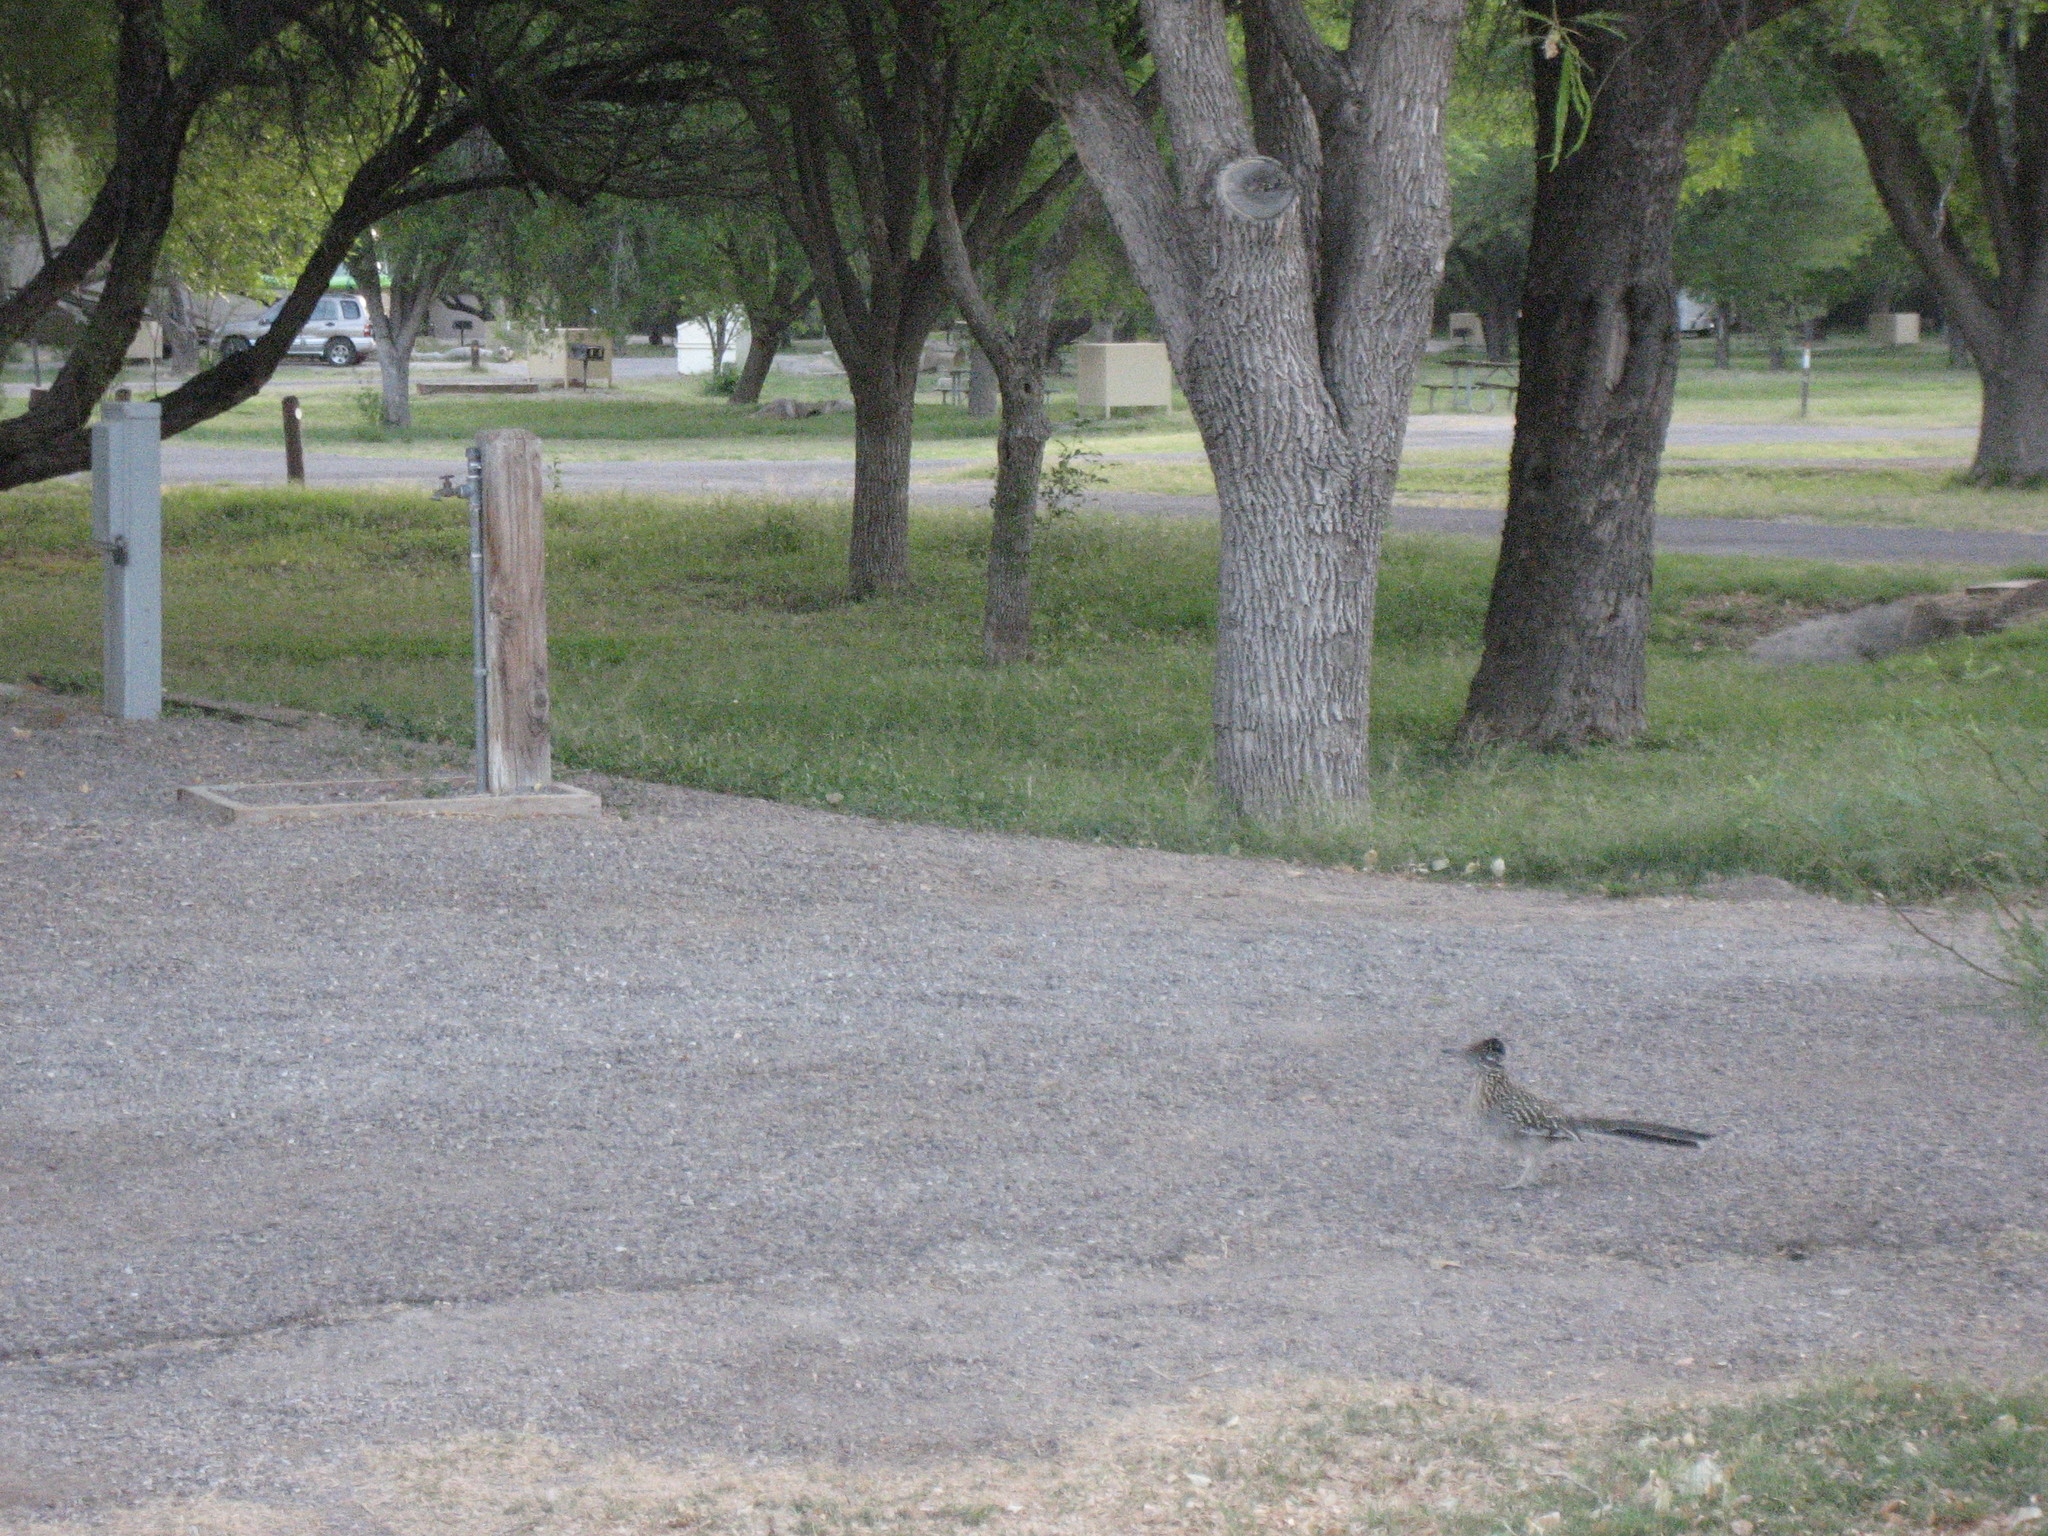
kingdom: Animalia
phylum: Chordata
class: Aves
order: Cuculiformes
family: Cuculidae
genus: Geococcyx
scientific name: Geococcyx californianus
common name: Greater roadrunner
